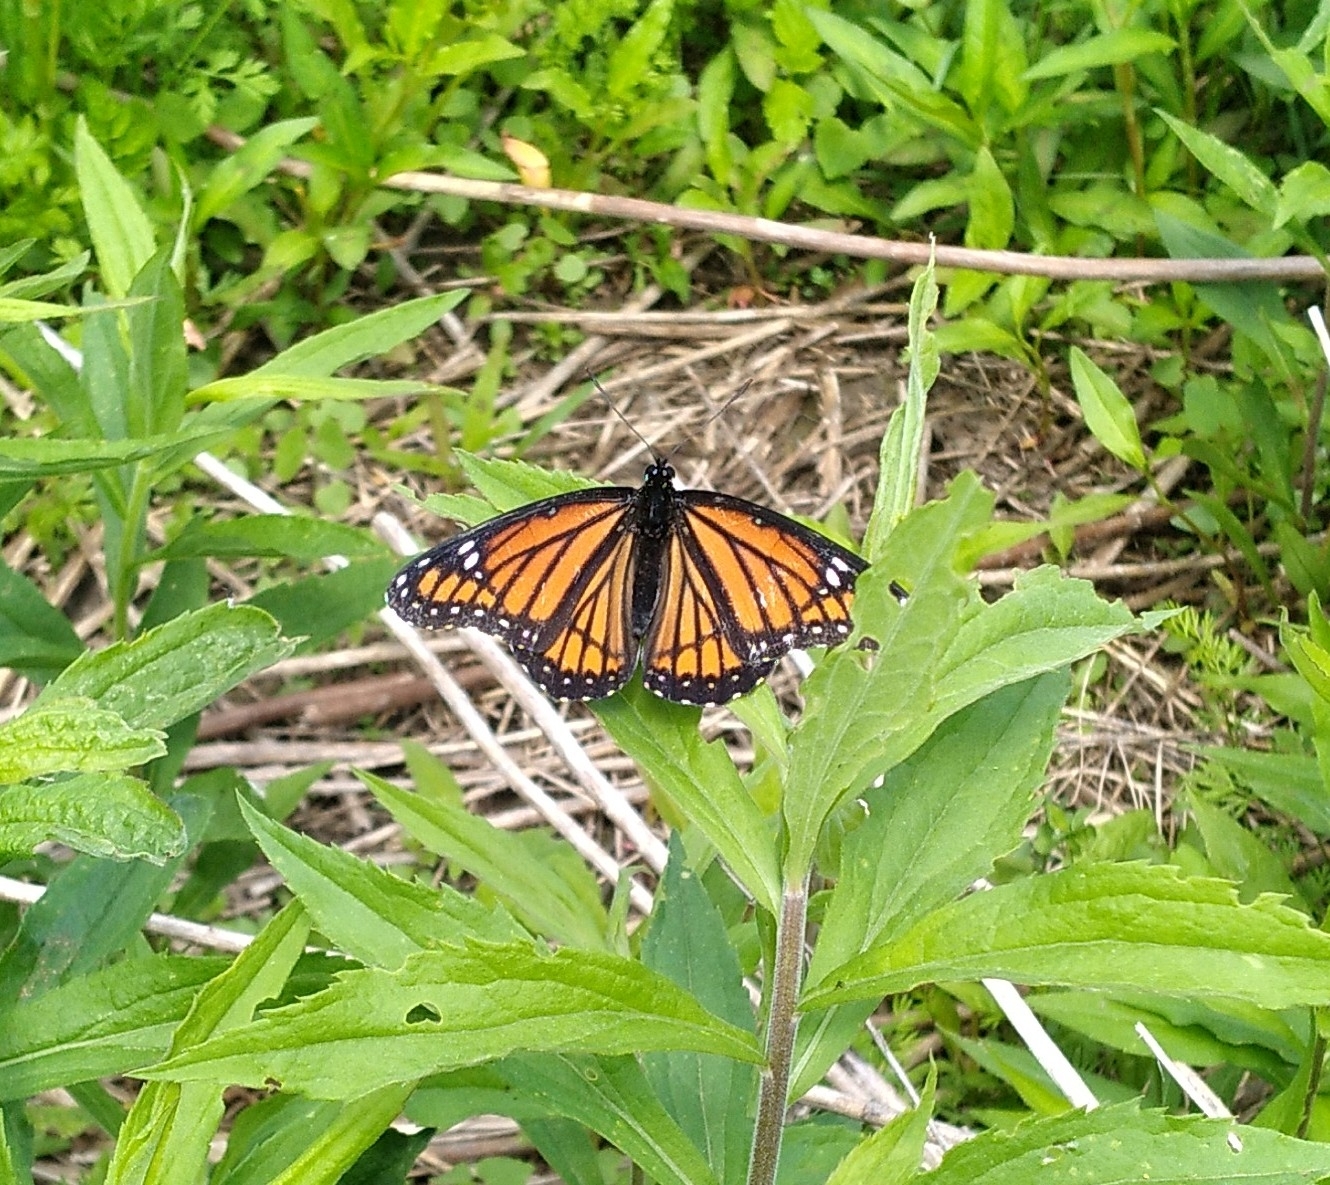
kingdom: Animalia
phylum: Arthropoda
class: Insecta
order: Lepidoptera
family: Nymphalidae
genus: Limenitis
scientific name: Limenitis archippus
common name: Viceroy
